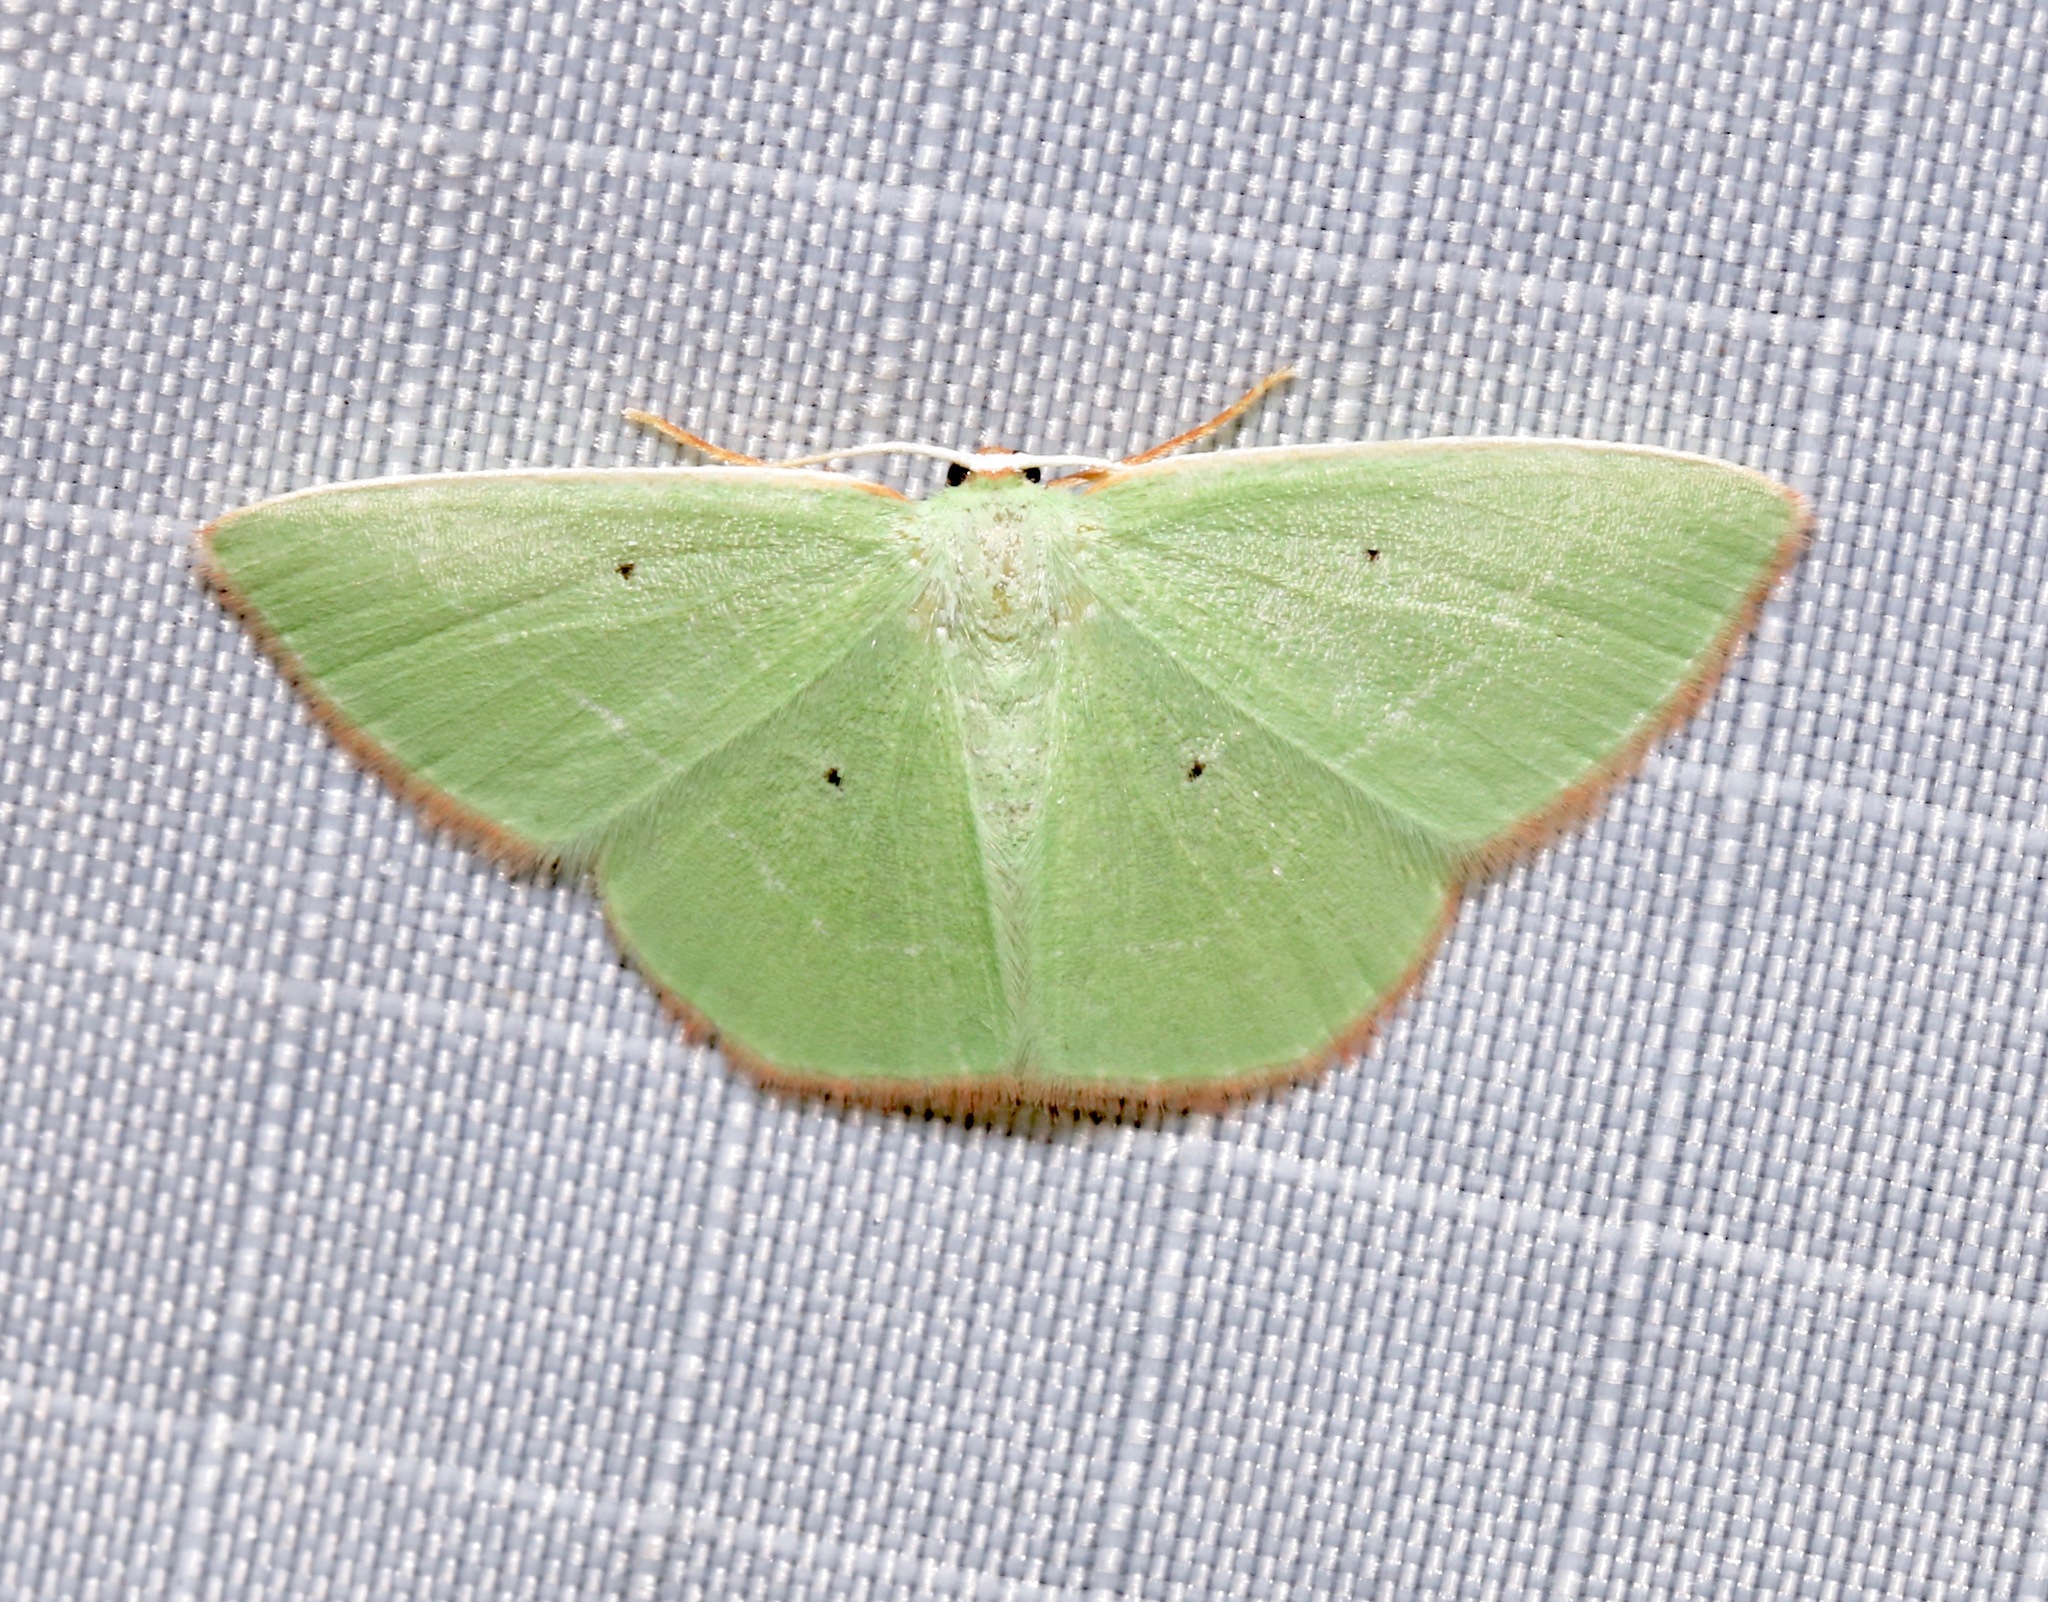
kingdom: Animalia
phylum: Arthropoda
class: Insecta
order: Lepidoptera
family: Geometridae
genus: Nemoria
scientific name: Nemoria extremaria
